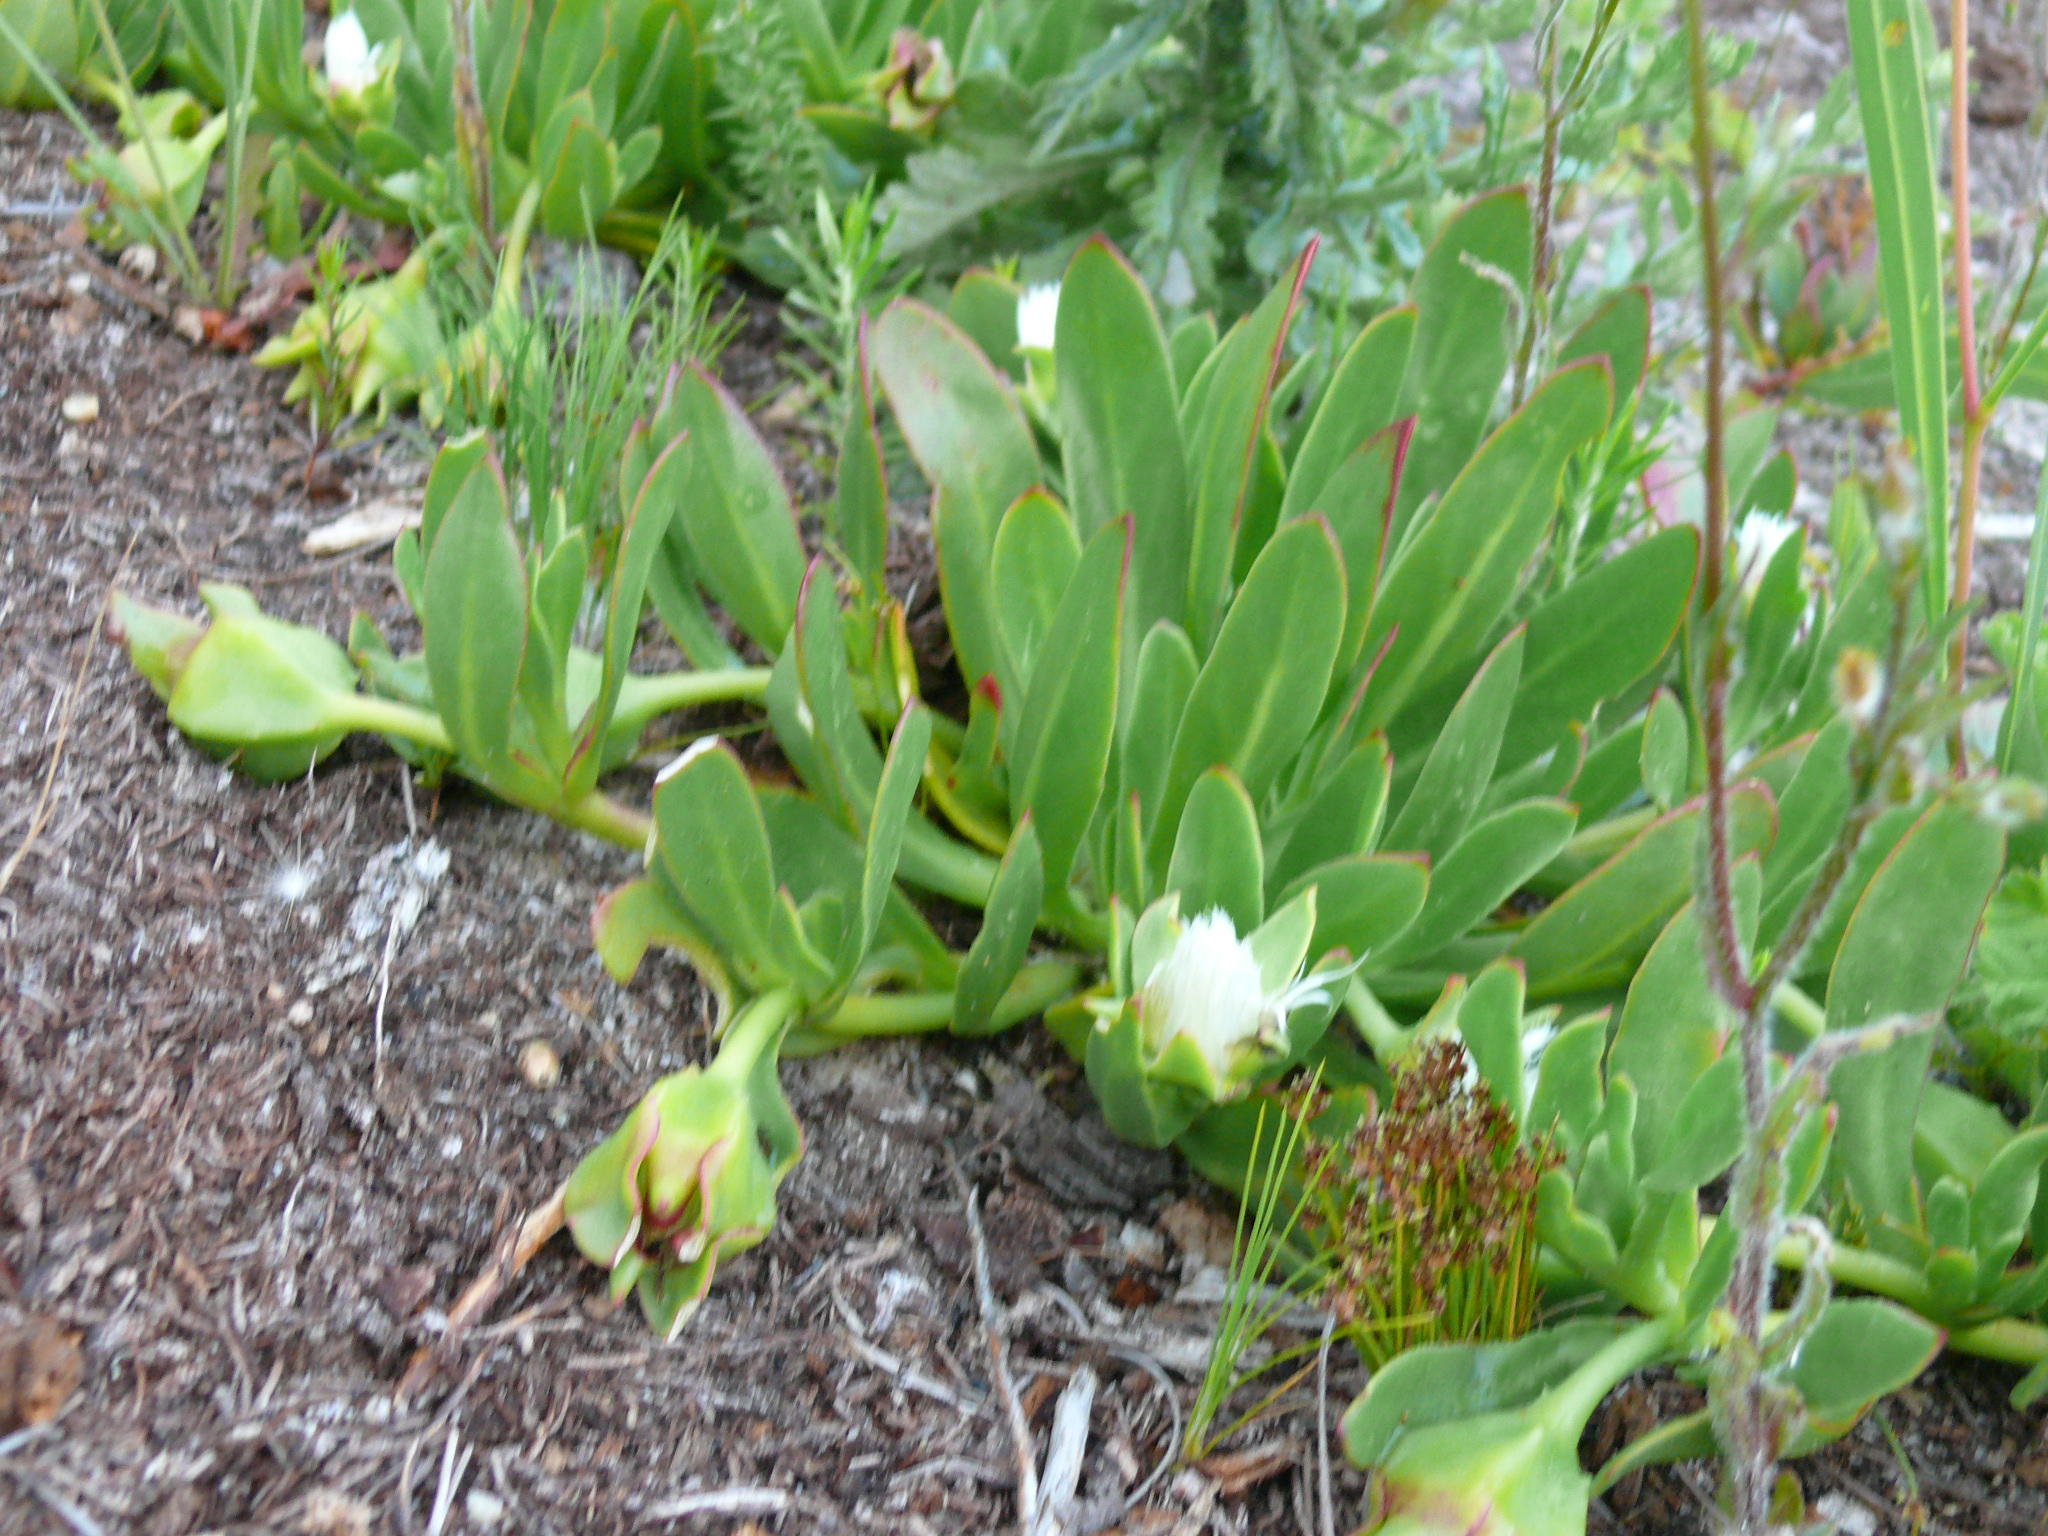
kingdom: Plantae
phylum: Tracheophyta
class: Magnoliopsida
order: Caryophyllales
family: Aizoaceae
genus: Skiatophytum
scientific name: Skiatophytum tripolium
